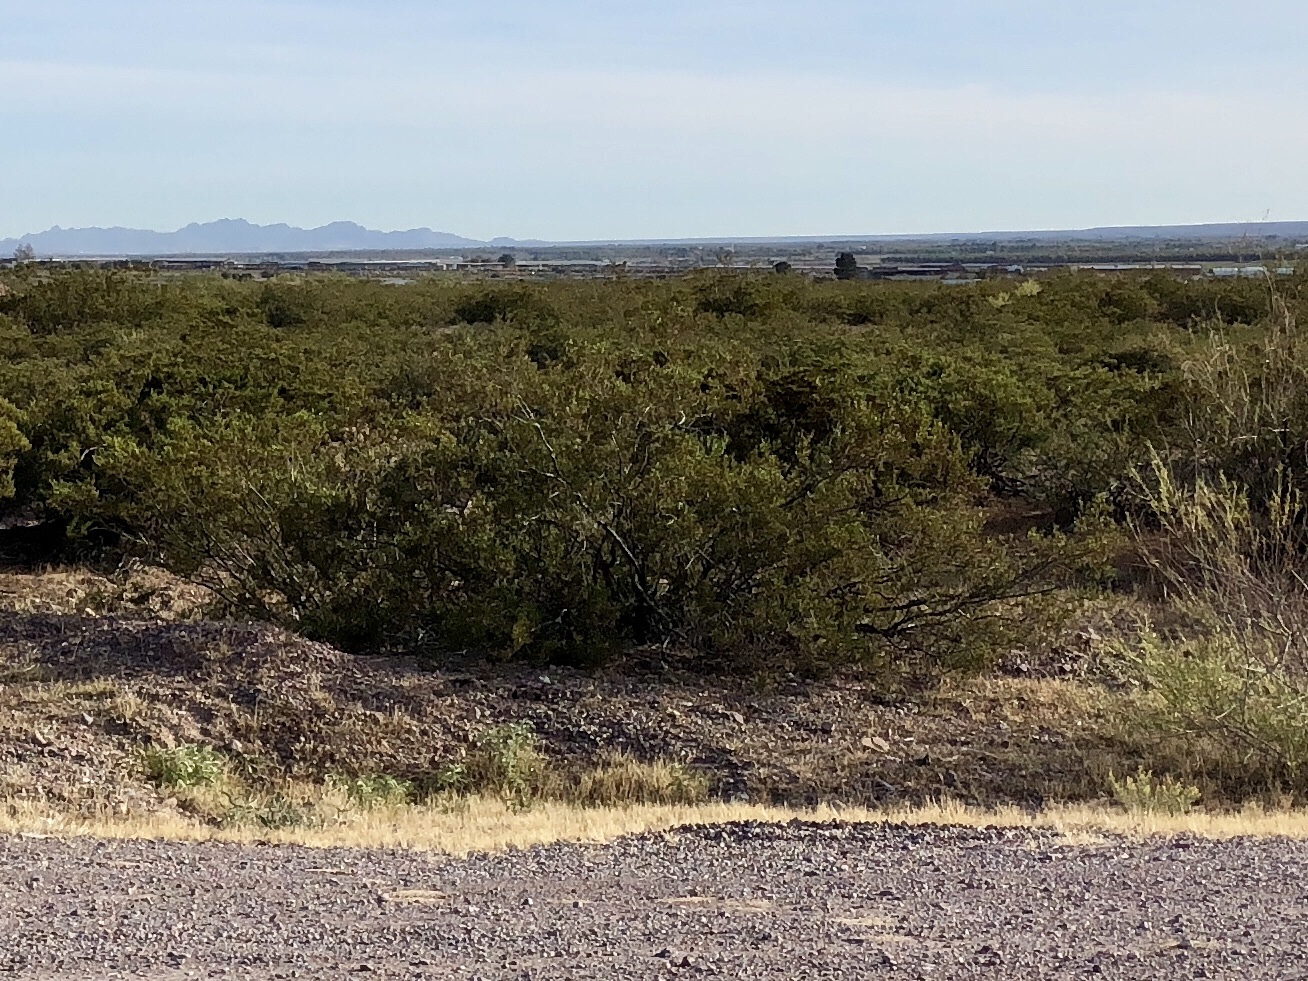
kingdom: Plantae
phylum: Tracheophyta
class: Magnoliopsida
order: Zygophyllales
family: Zygophyllaceae
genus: Larrea
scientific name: Larrea tridentata
